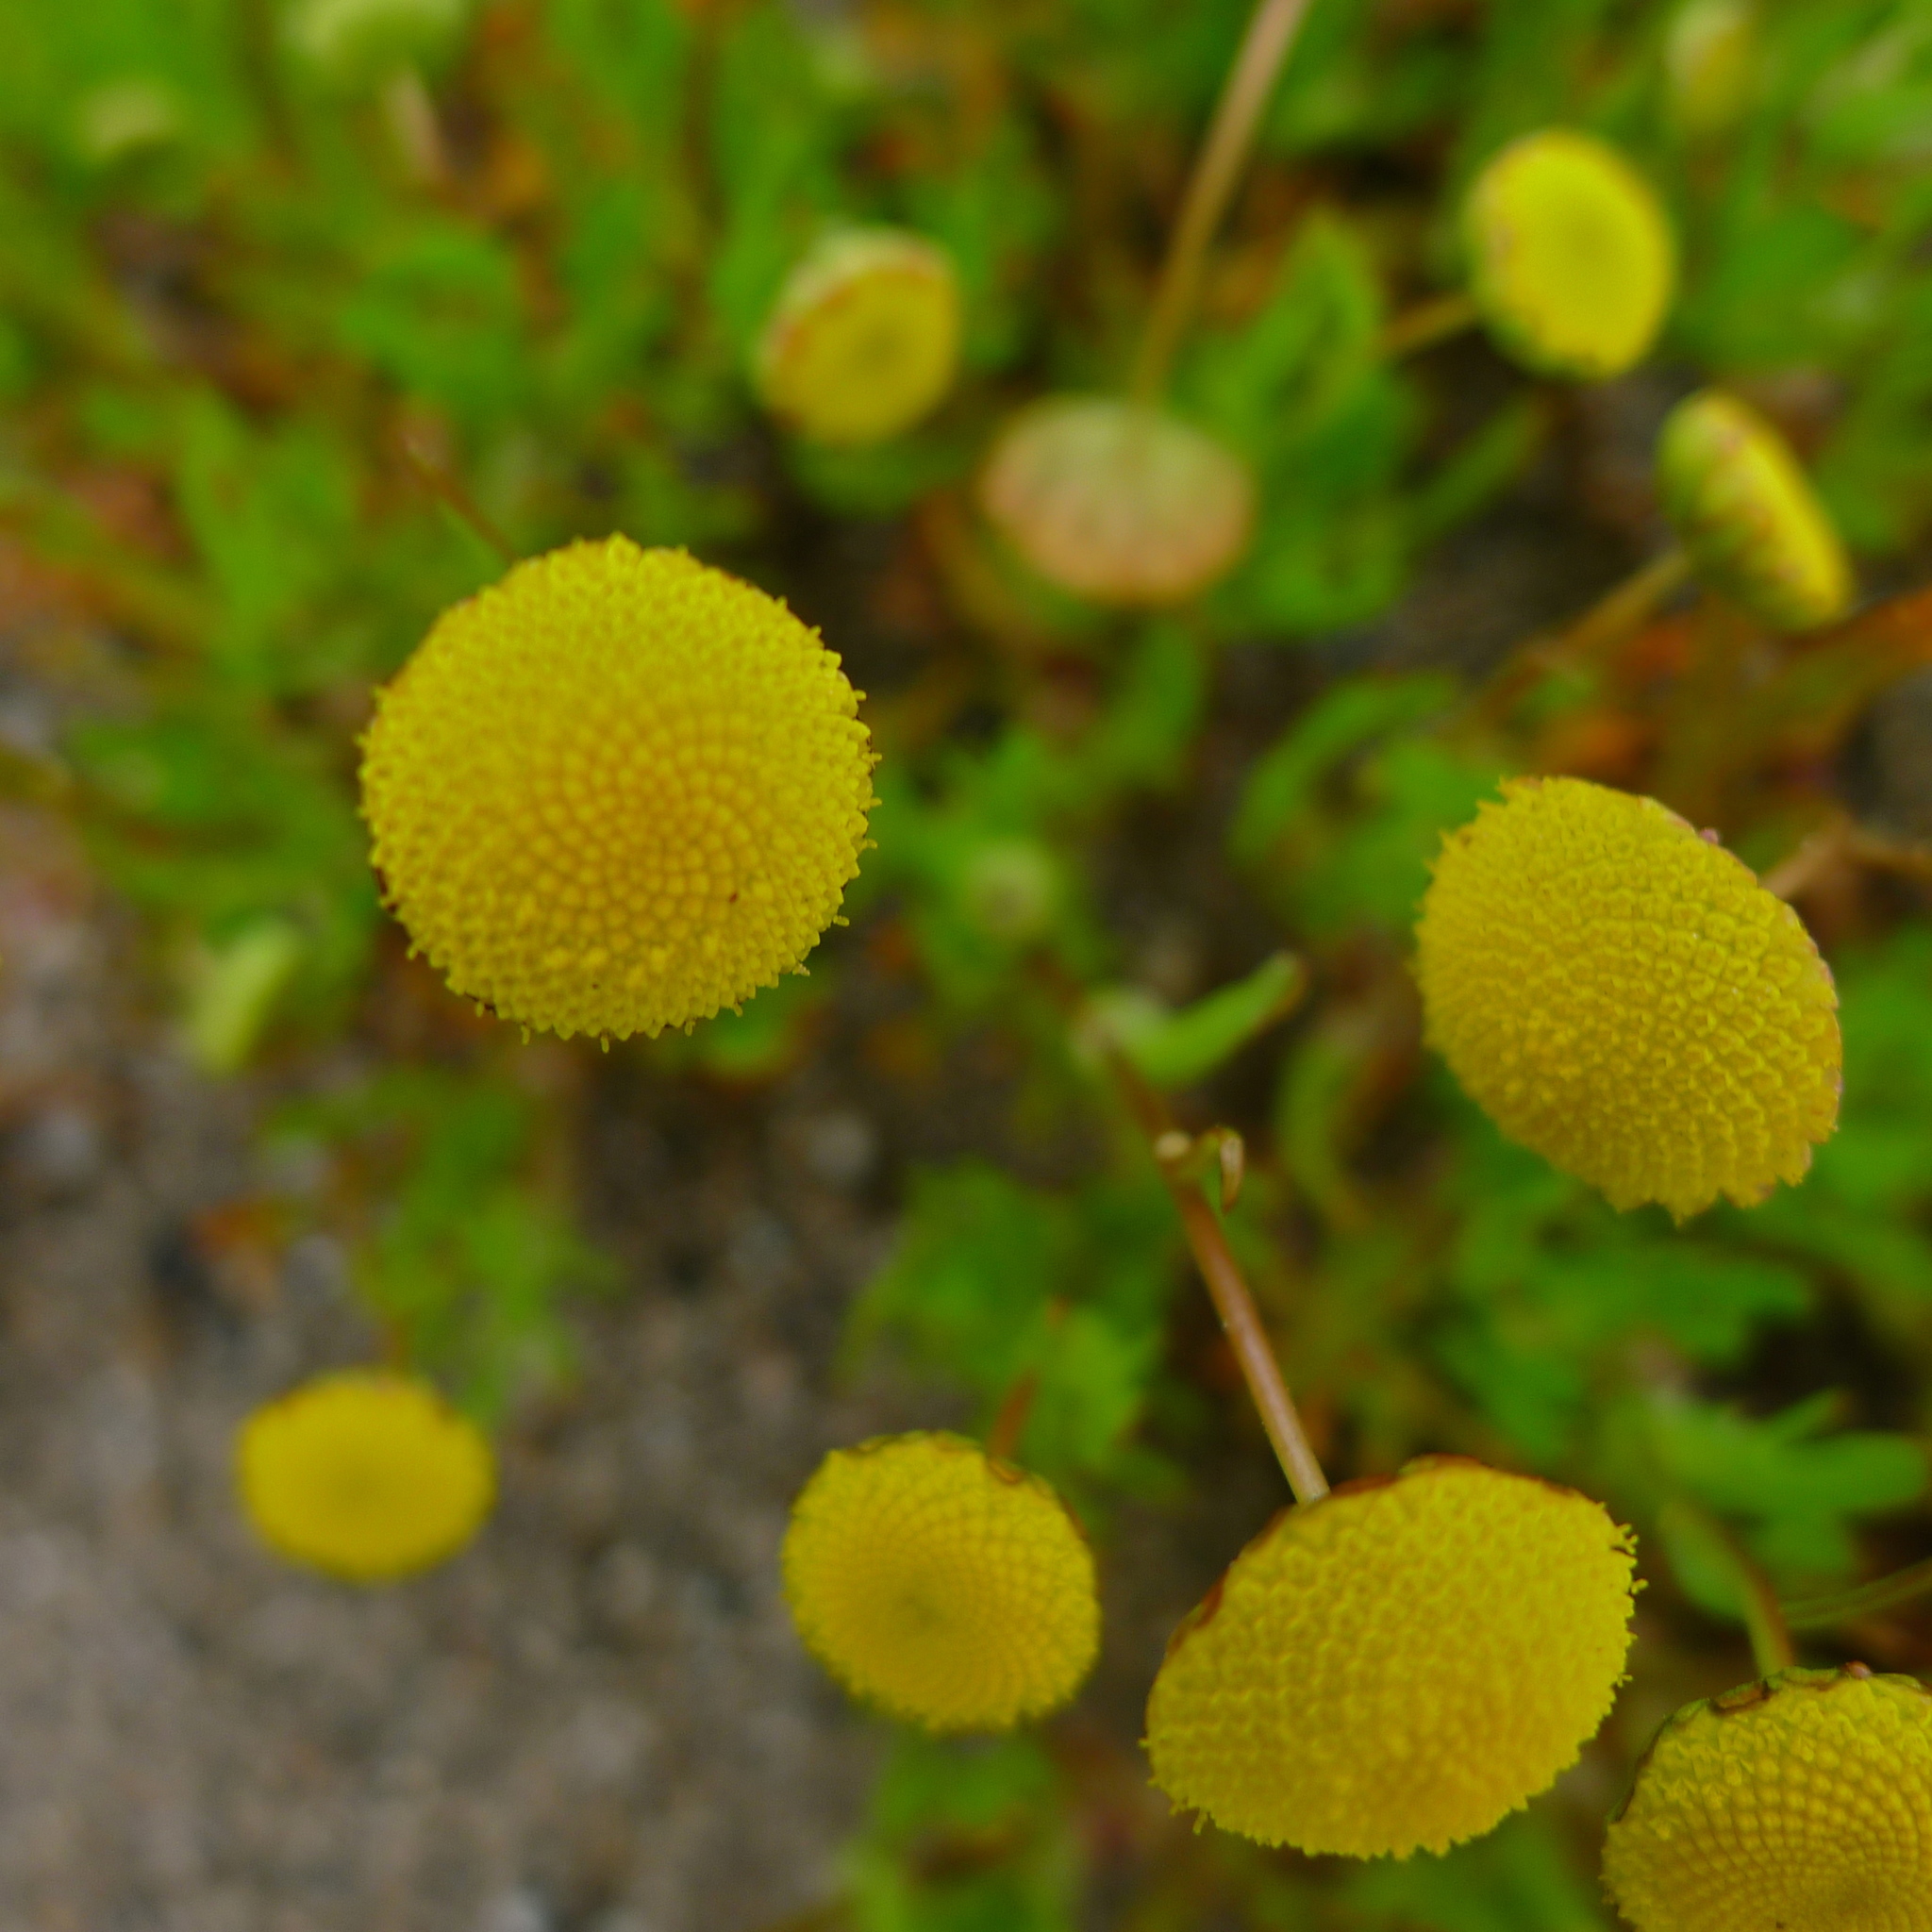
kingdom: Plantae
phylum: Tracheophyta
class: Magnoliopsida
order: Asterales
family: Asteraceae
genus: Cotula
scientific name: Cotula coronopifolia
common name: Buttonweed
